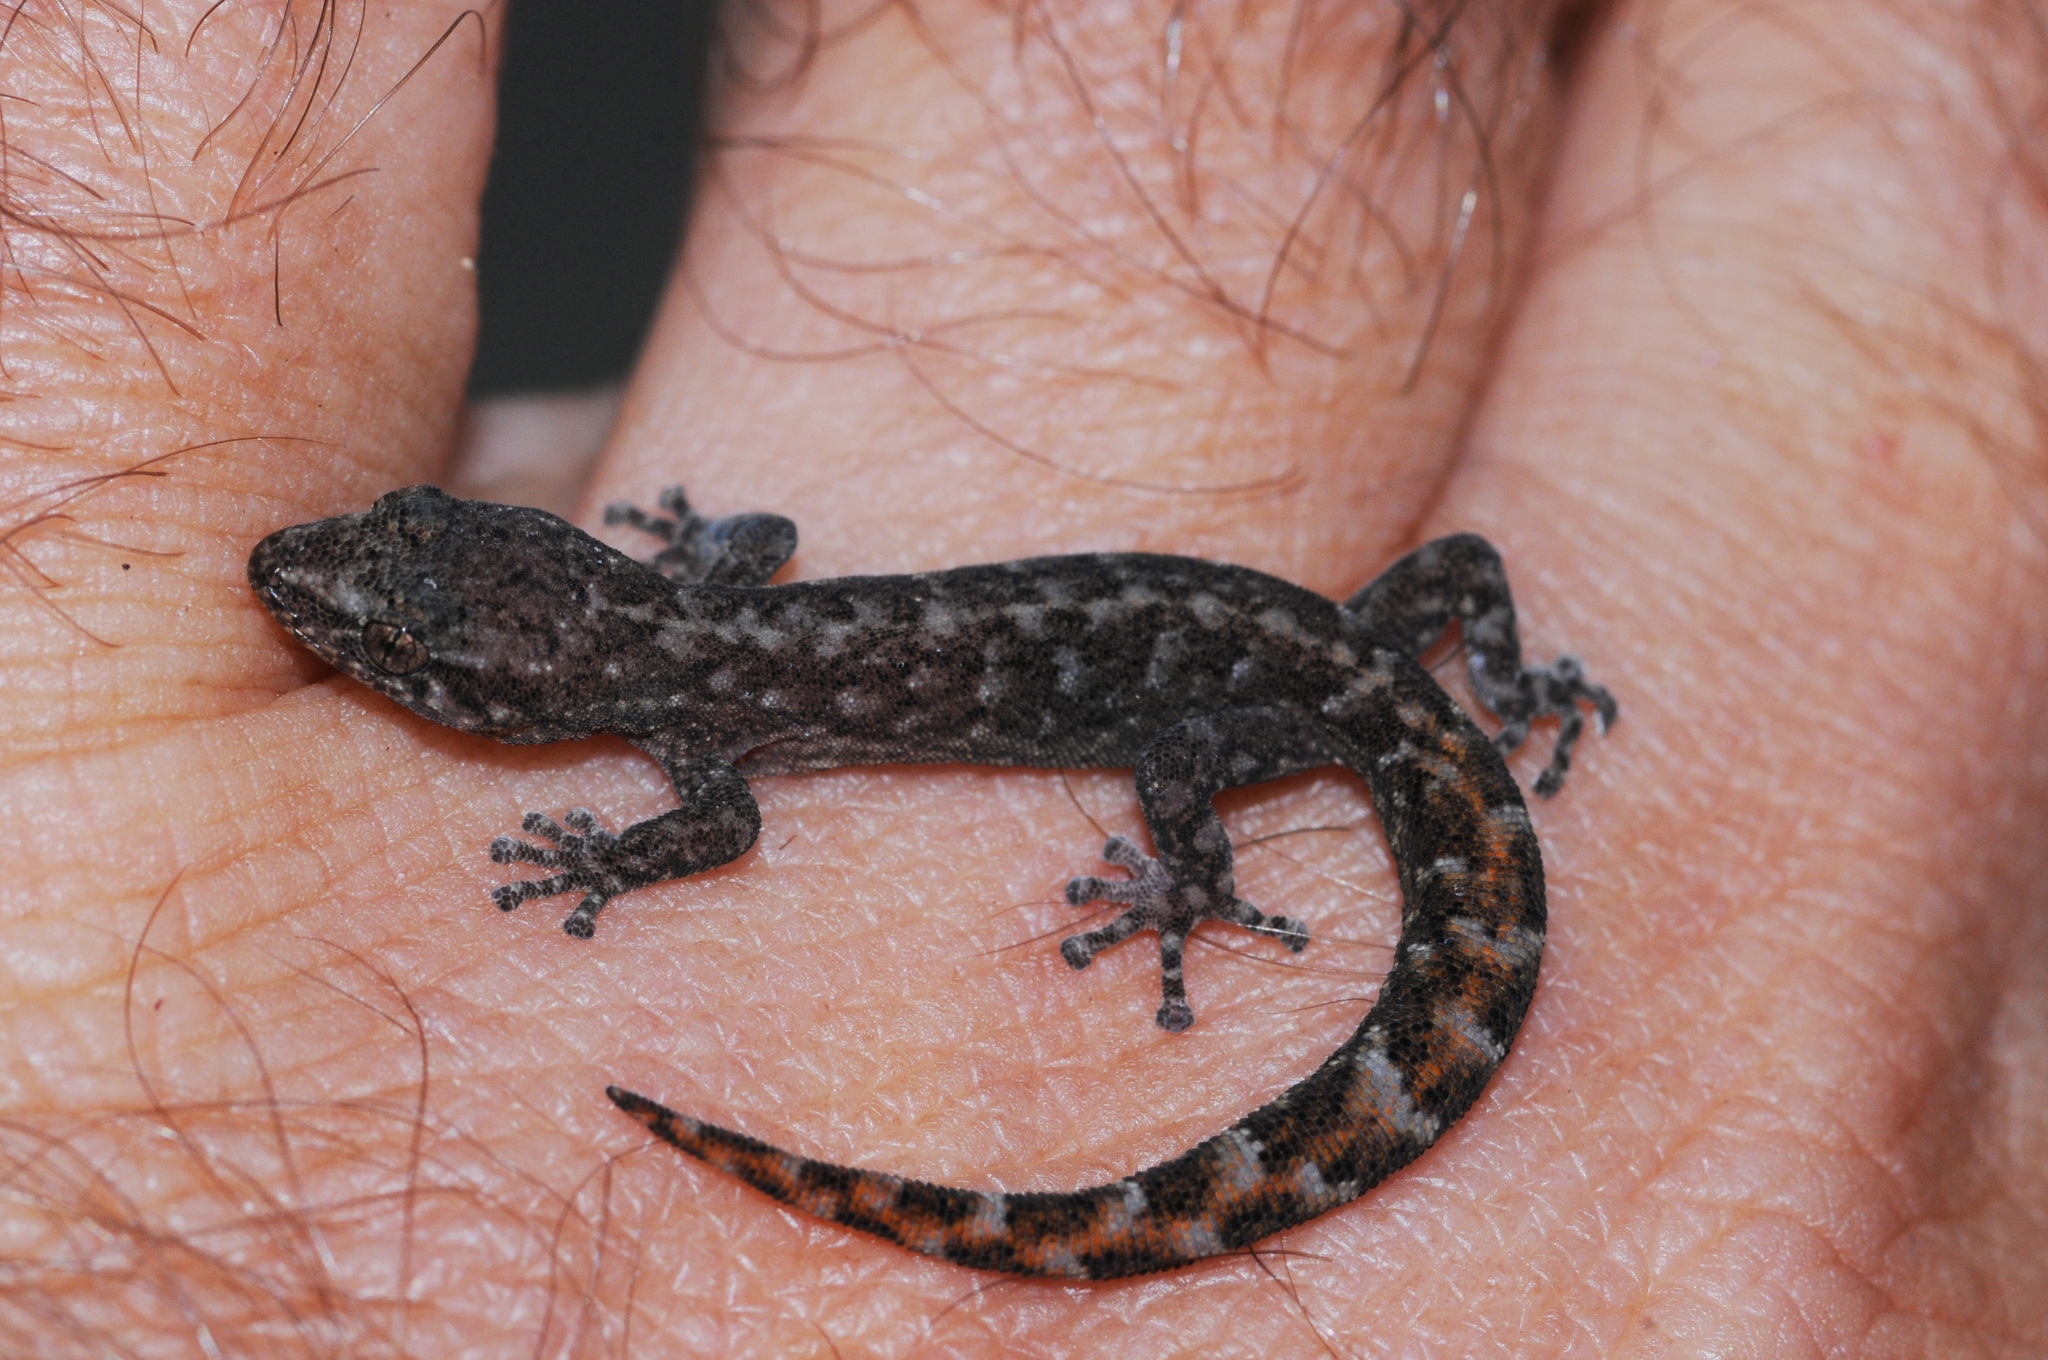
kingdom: Animalia
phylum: Chordata
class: Squamata
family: Gekkonidae
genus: Afrogecko
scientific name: Afrogecko porphyreus
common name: Marbled leaf-toed gecko
